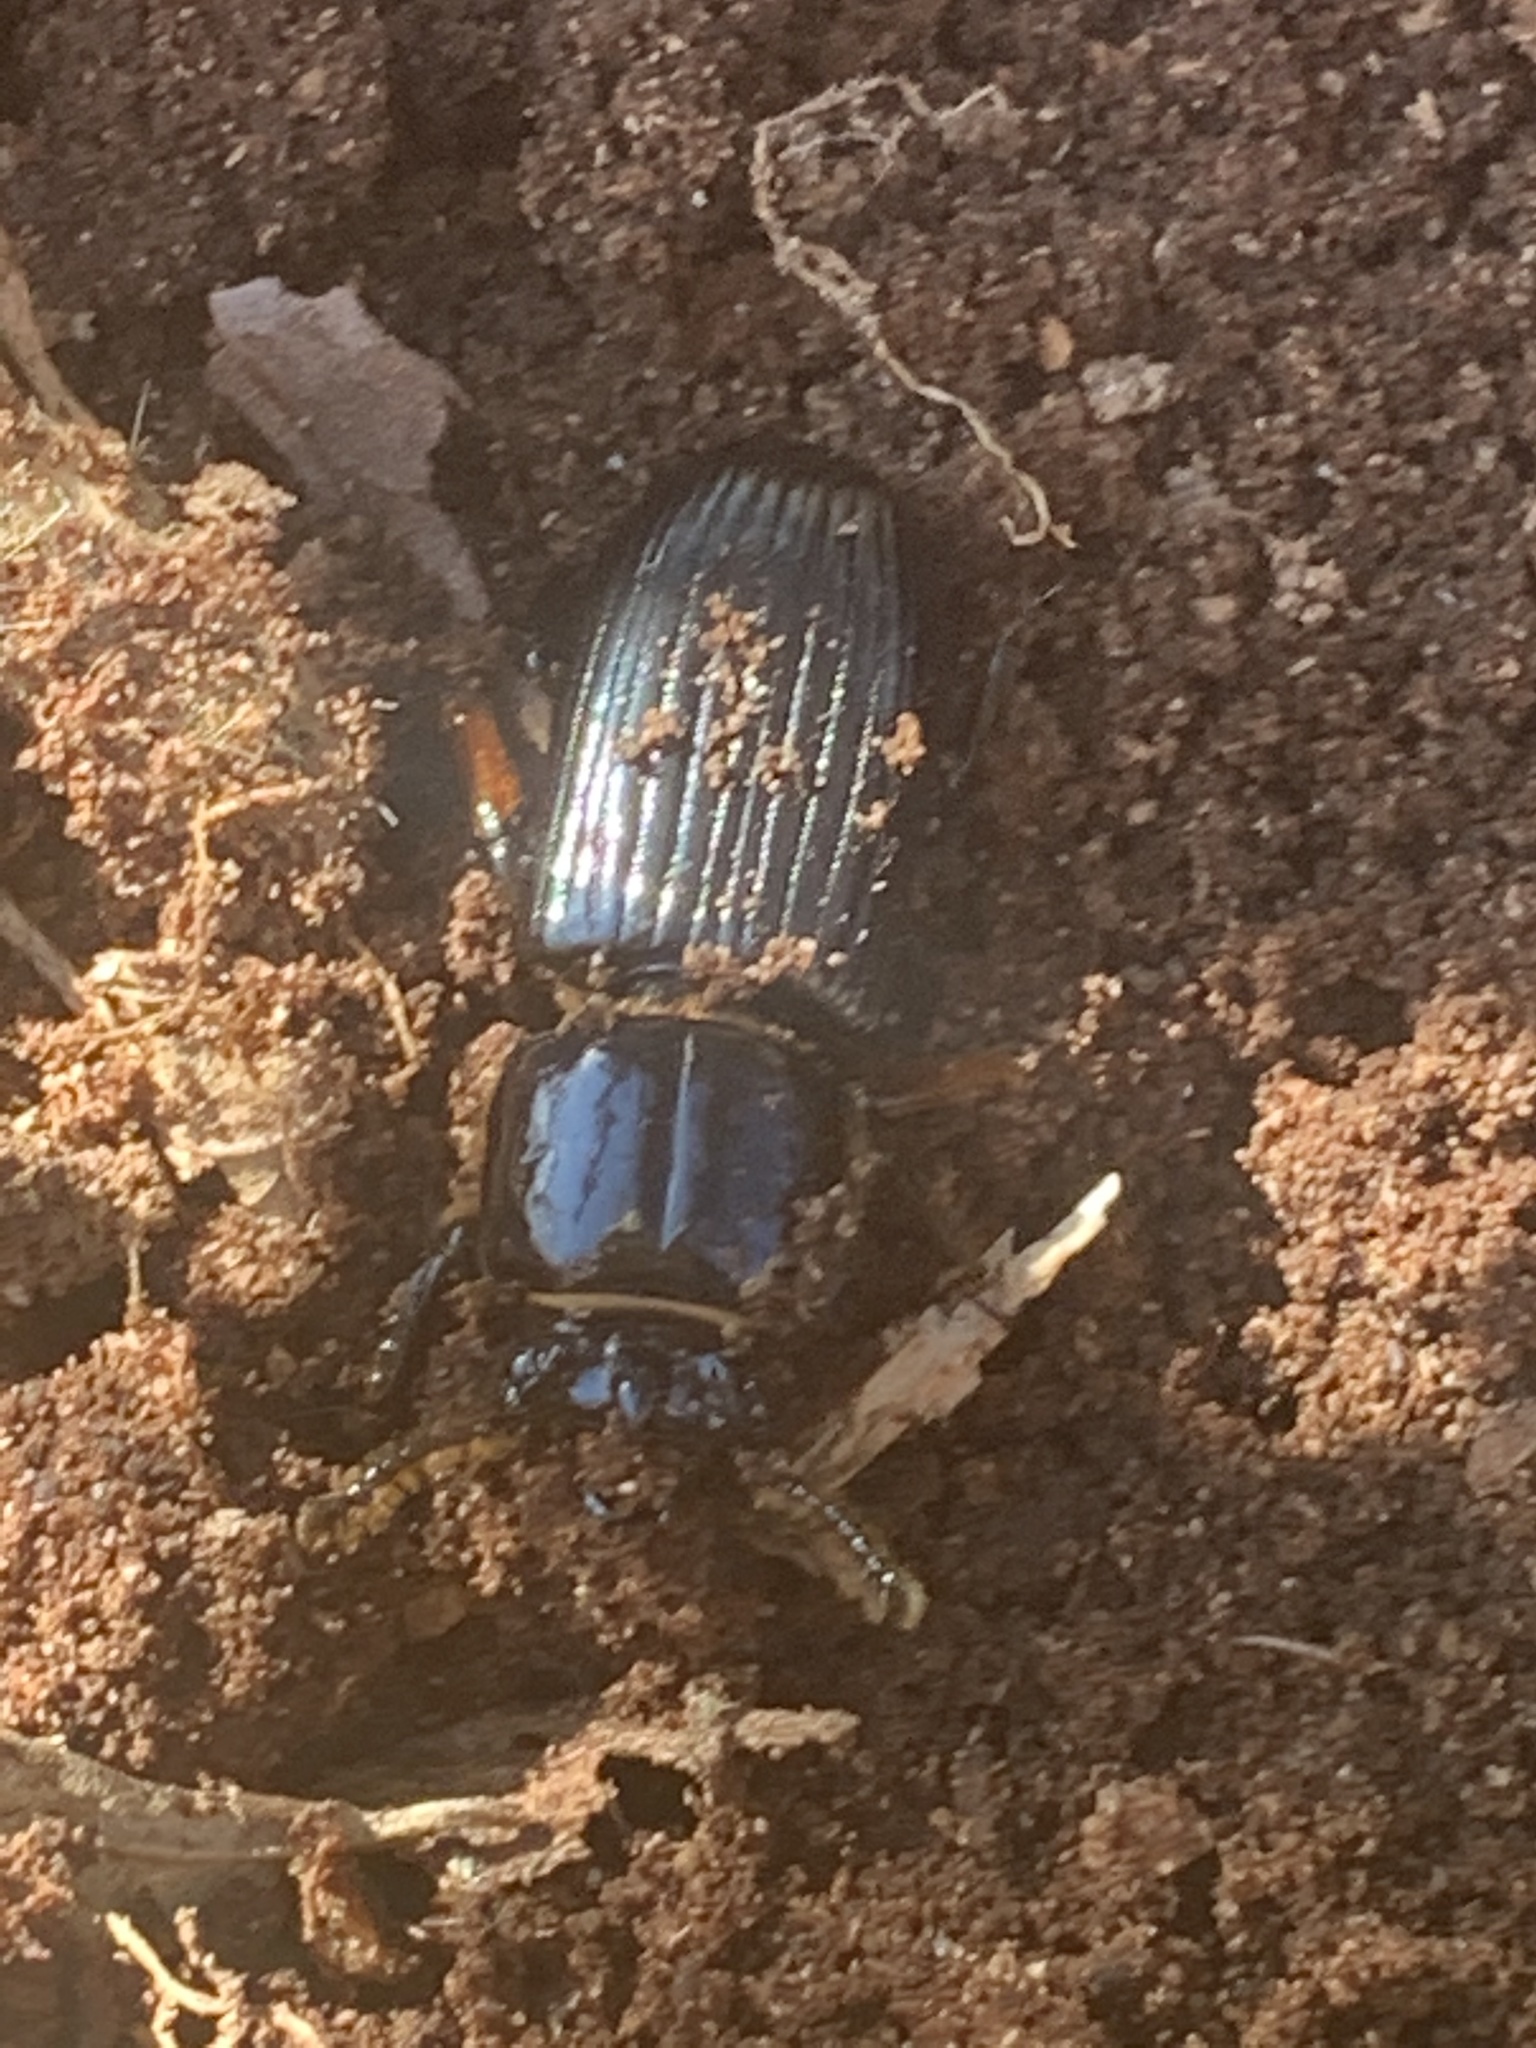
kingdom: Animalia
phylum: Arthropoda
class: Insecta
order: Coleoptera
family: Passalidae
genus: Odontotaenius
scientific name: Odontotaenius disjunctus
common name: Patent leather beetle
